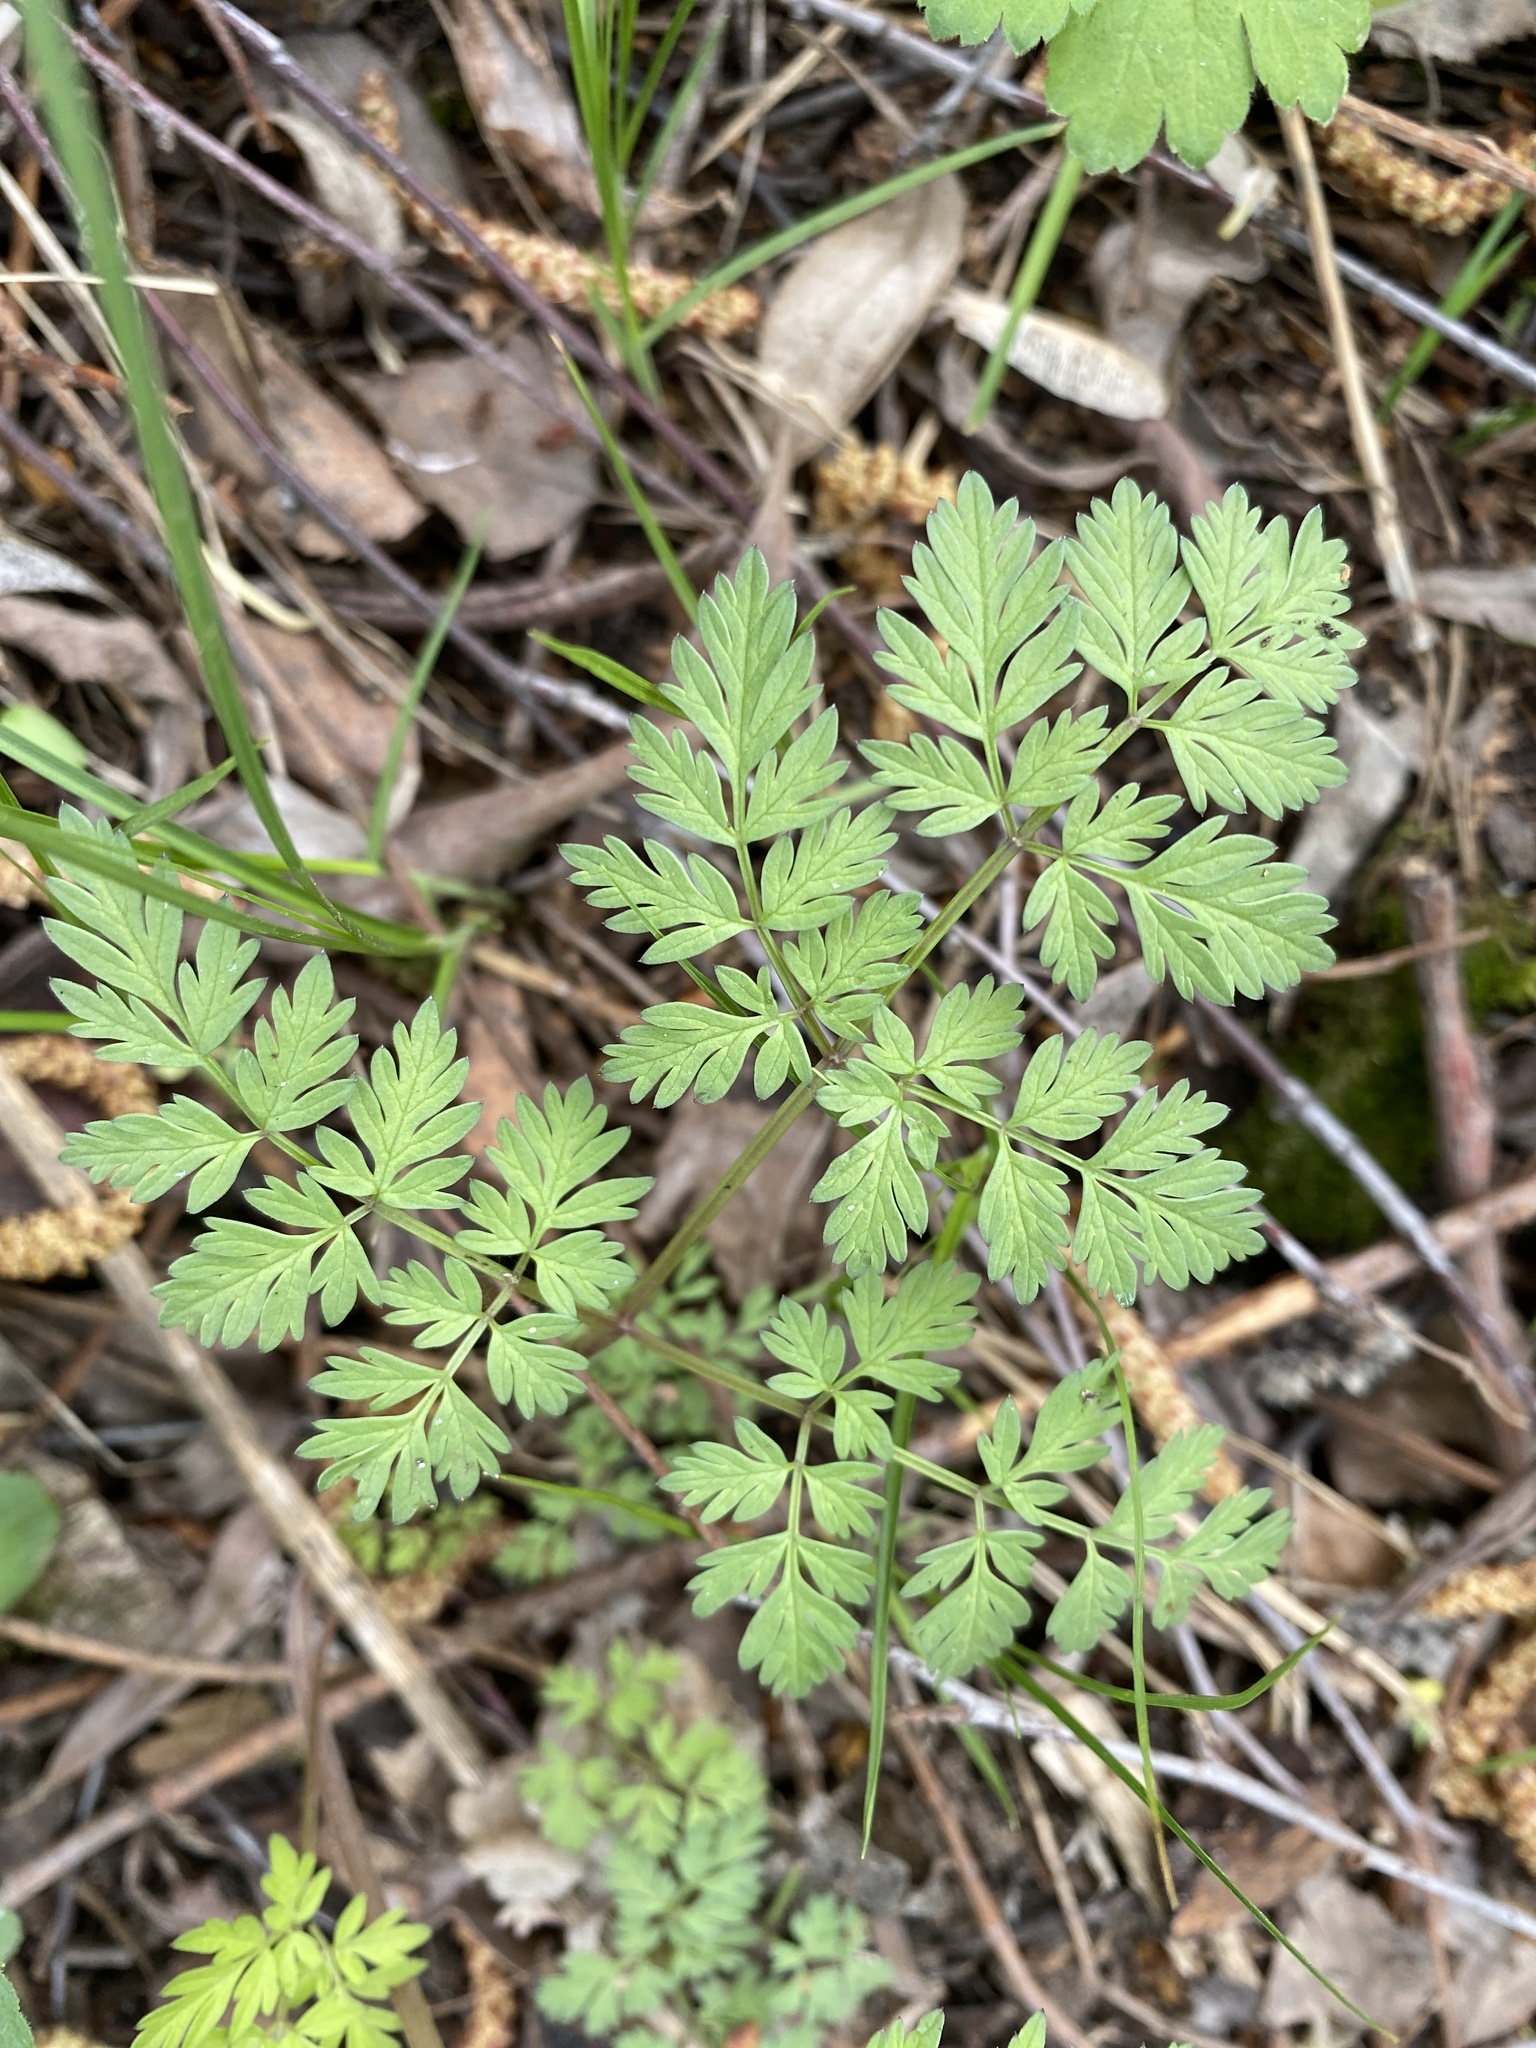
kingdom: Plantae
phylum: Tracheophyta
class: Magnoliopsida
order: Apiales
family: Apiaceae
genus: Anthriscus
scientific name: Anthriscus sylvestris
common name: Cow parsley
